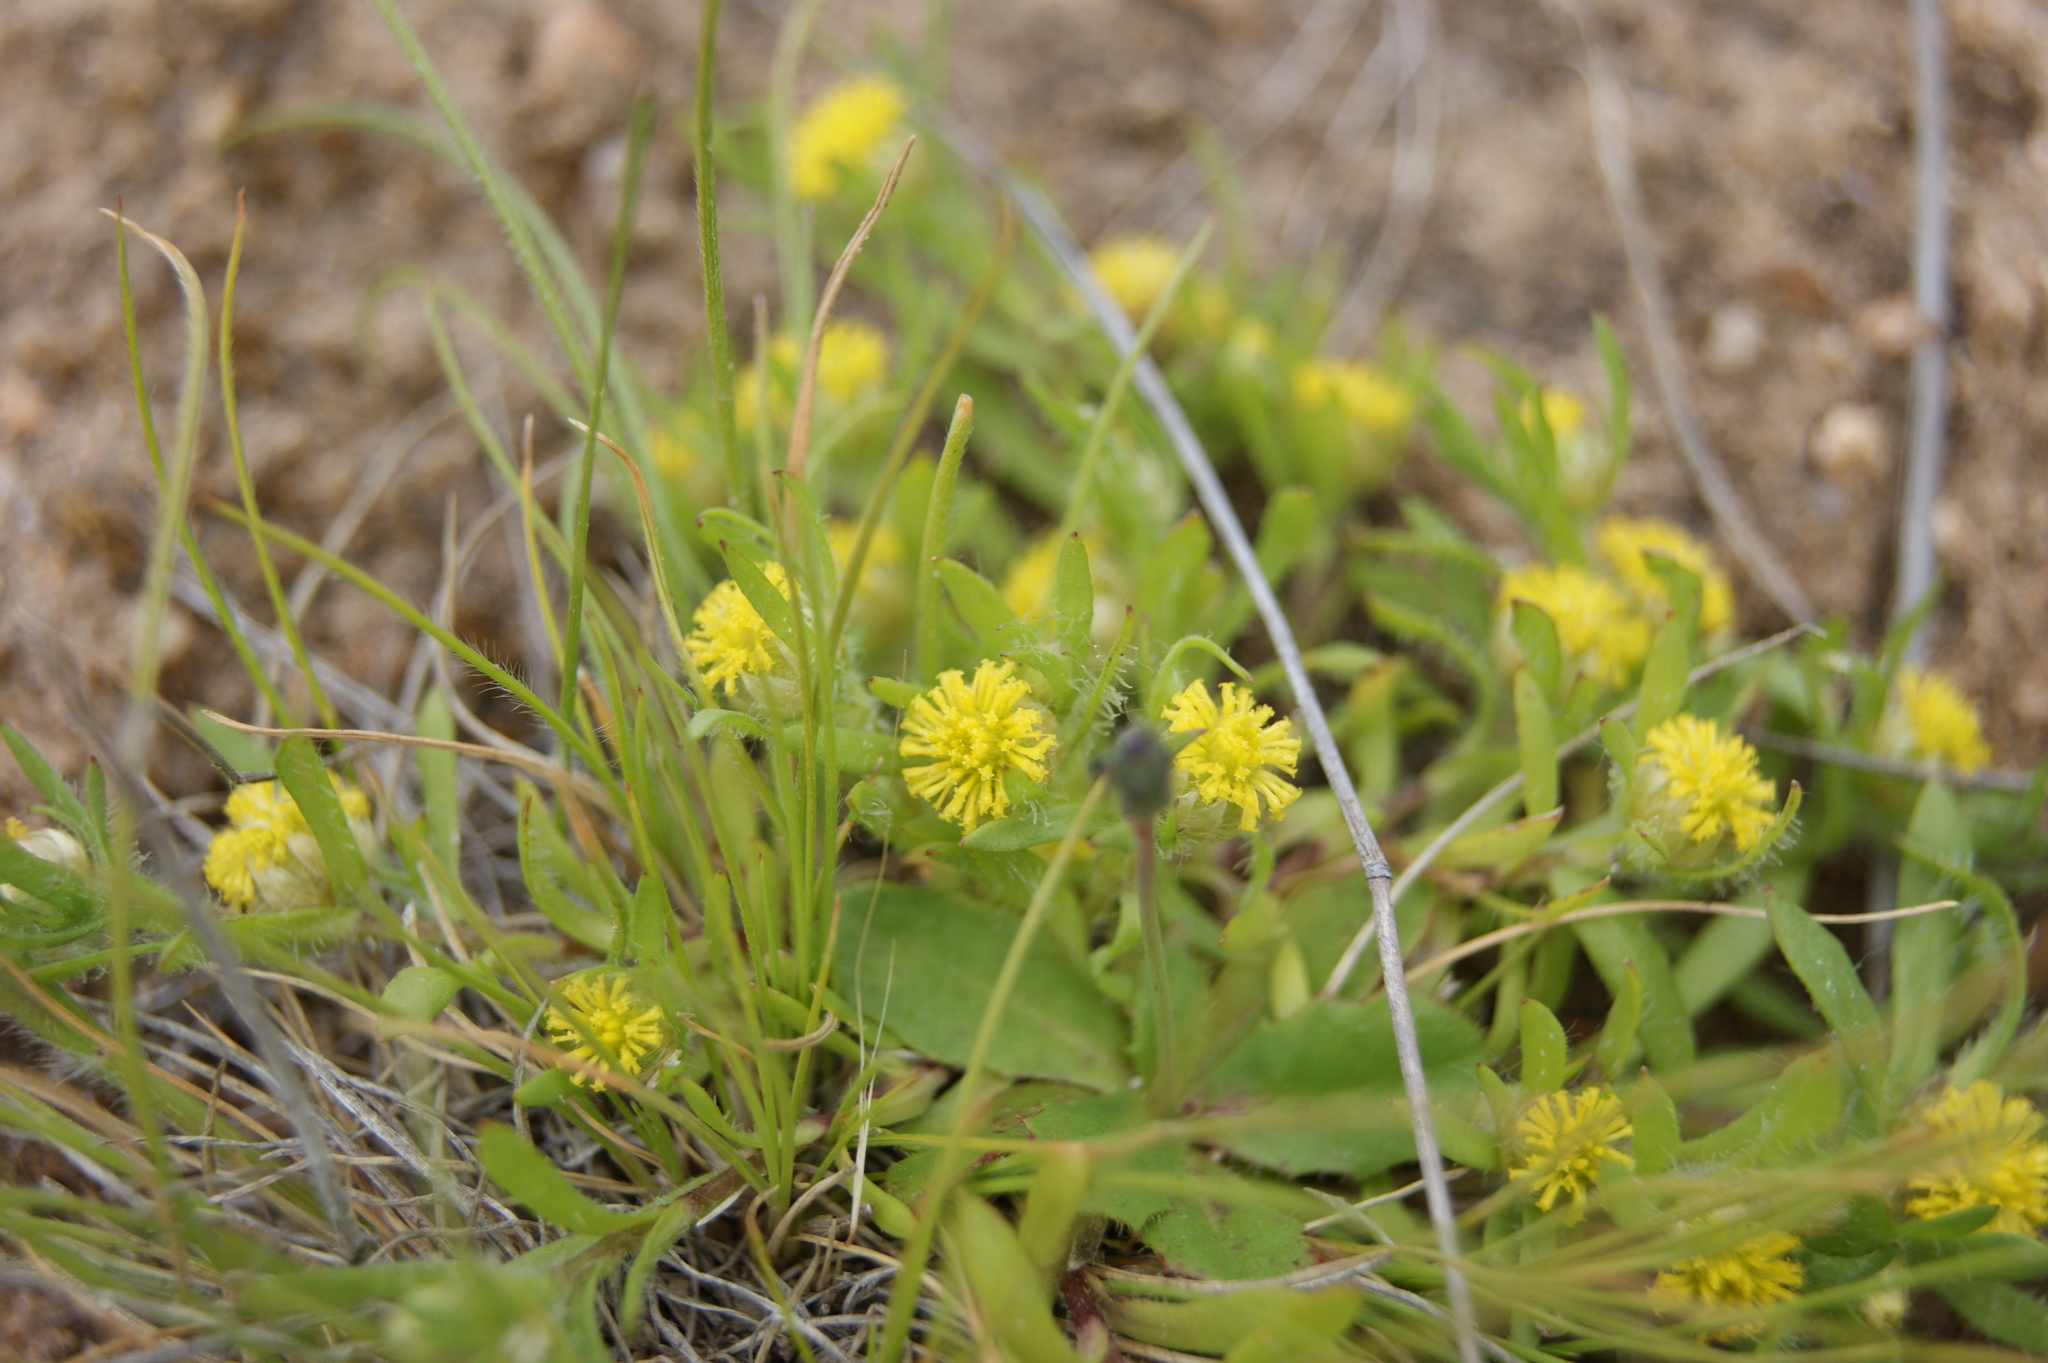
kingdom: Plantae
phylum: Tracheophyta
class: Magnoliopsida
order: Asterales
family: Asteraceae
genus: Triptilodiscus
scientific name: Triptilodiscus pygmaeus
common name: Common sunray
